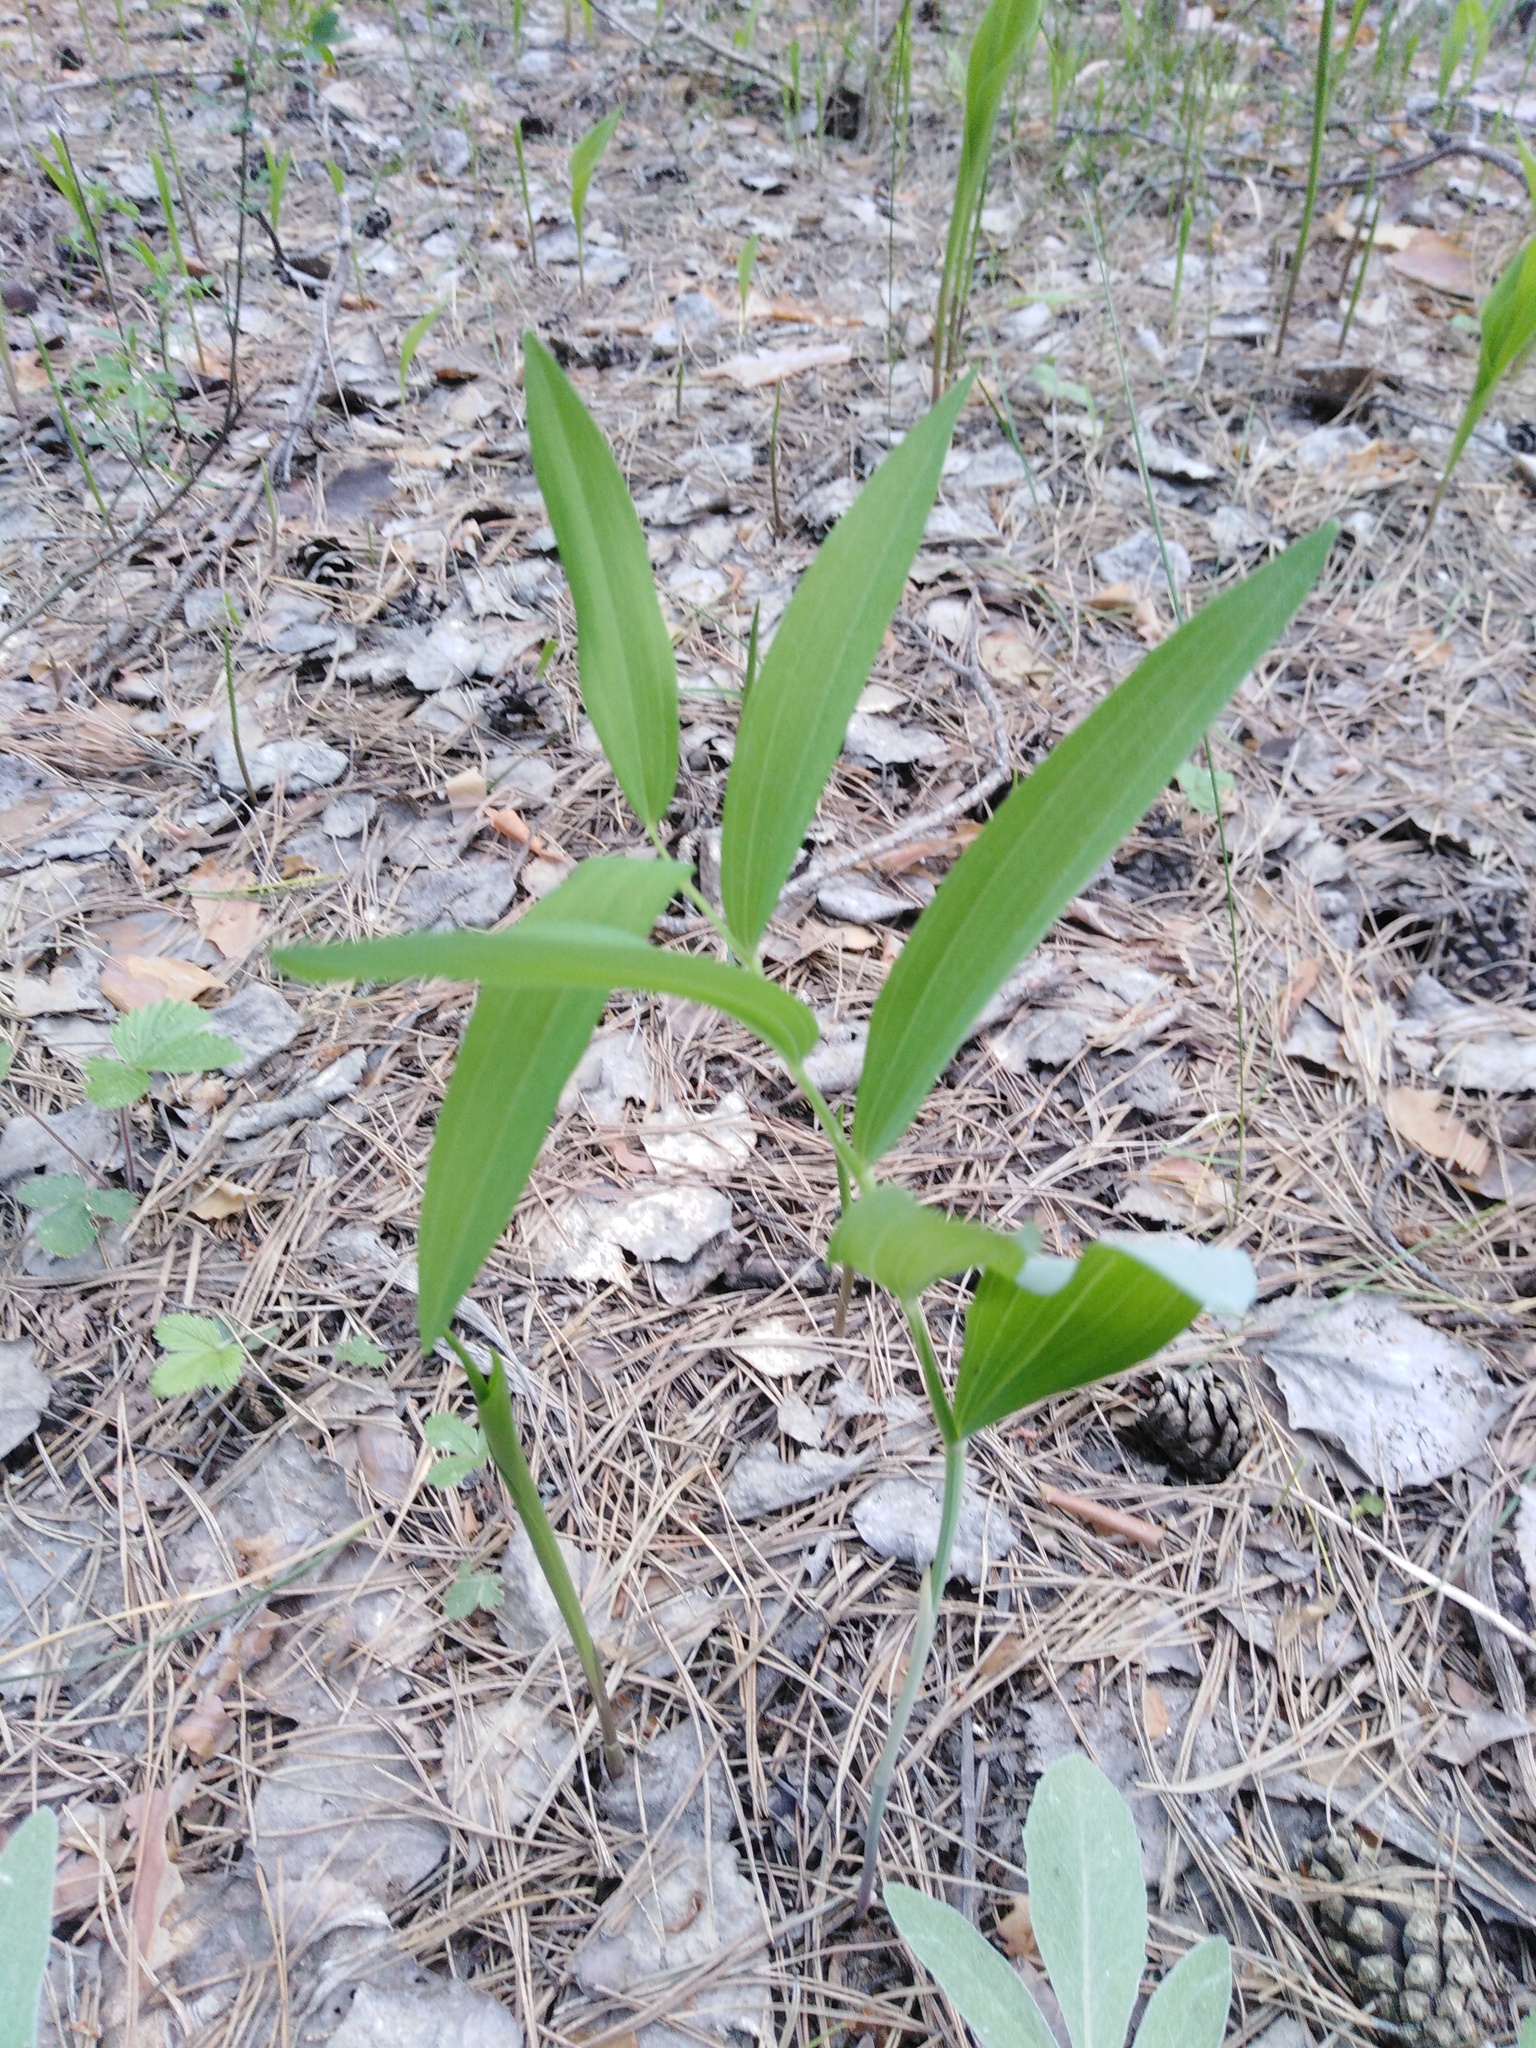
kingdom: Plantae
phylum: Tracheophyta
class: Liliopsida
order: Asparagales
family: Asparagaceae
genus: Polygonatum
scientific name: Polygonatum odoratum
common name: Angular solomon's-seal
